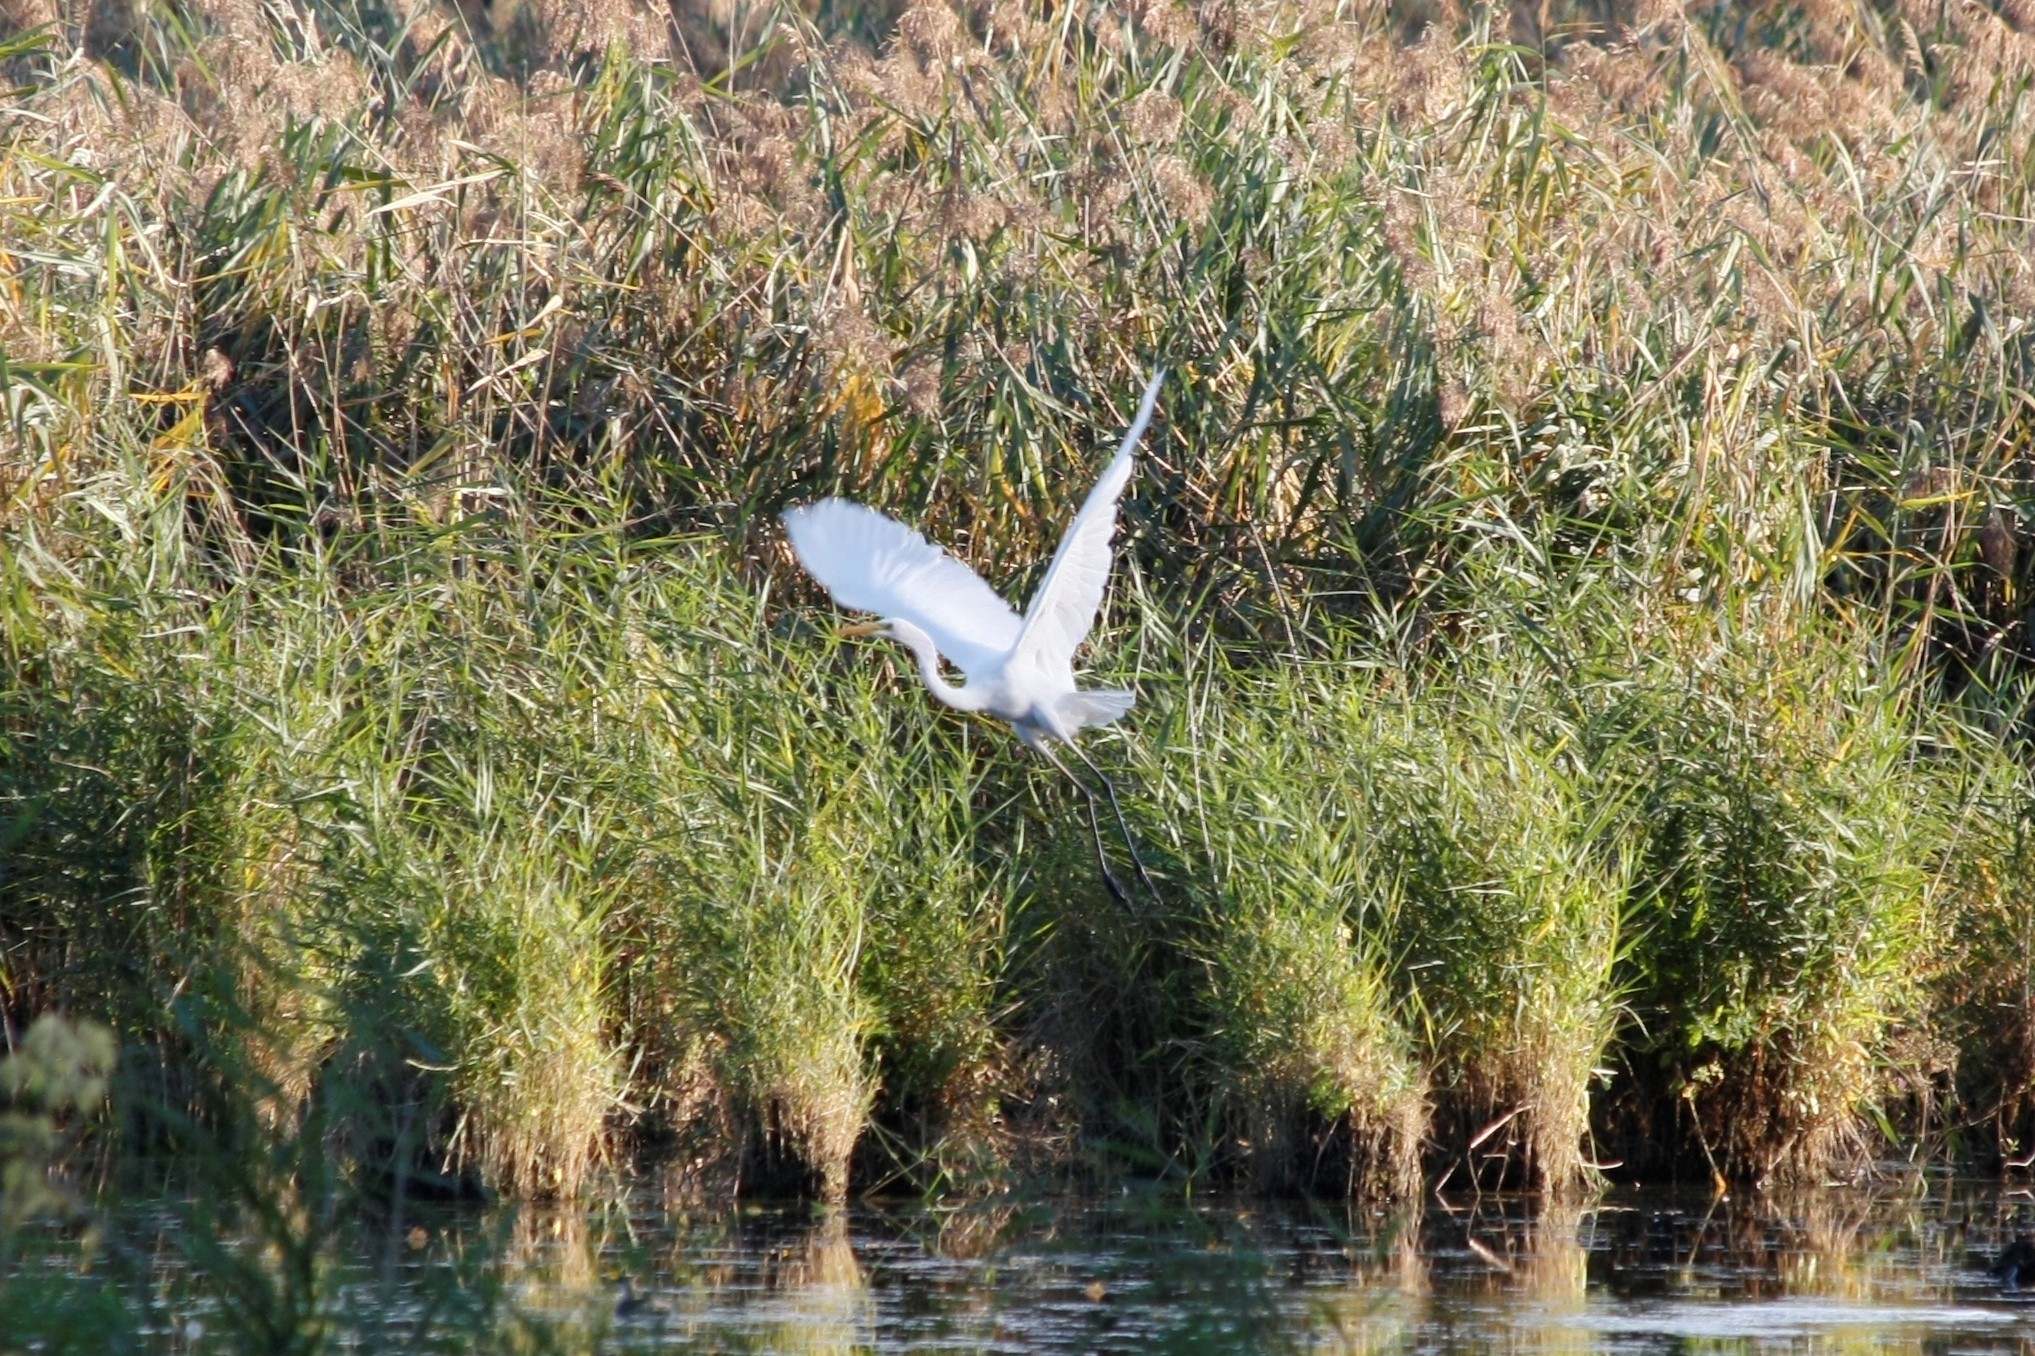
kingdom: Animalia
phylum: Chordata
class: Aves
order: Pelecaniformes
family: Ardeidae
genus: Ardea
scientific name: Ardea alba
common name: Great egret
